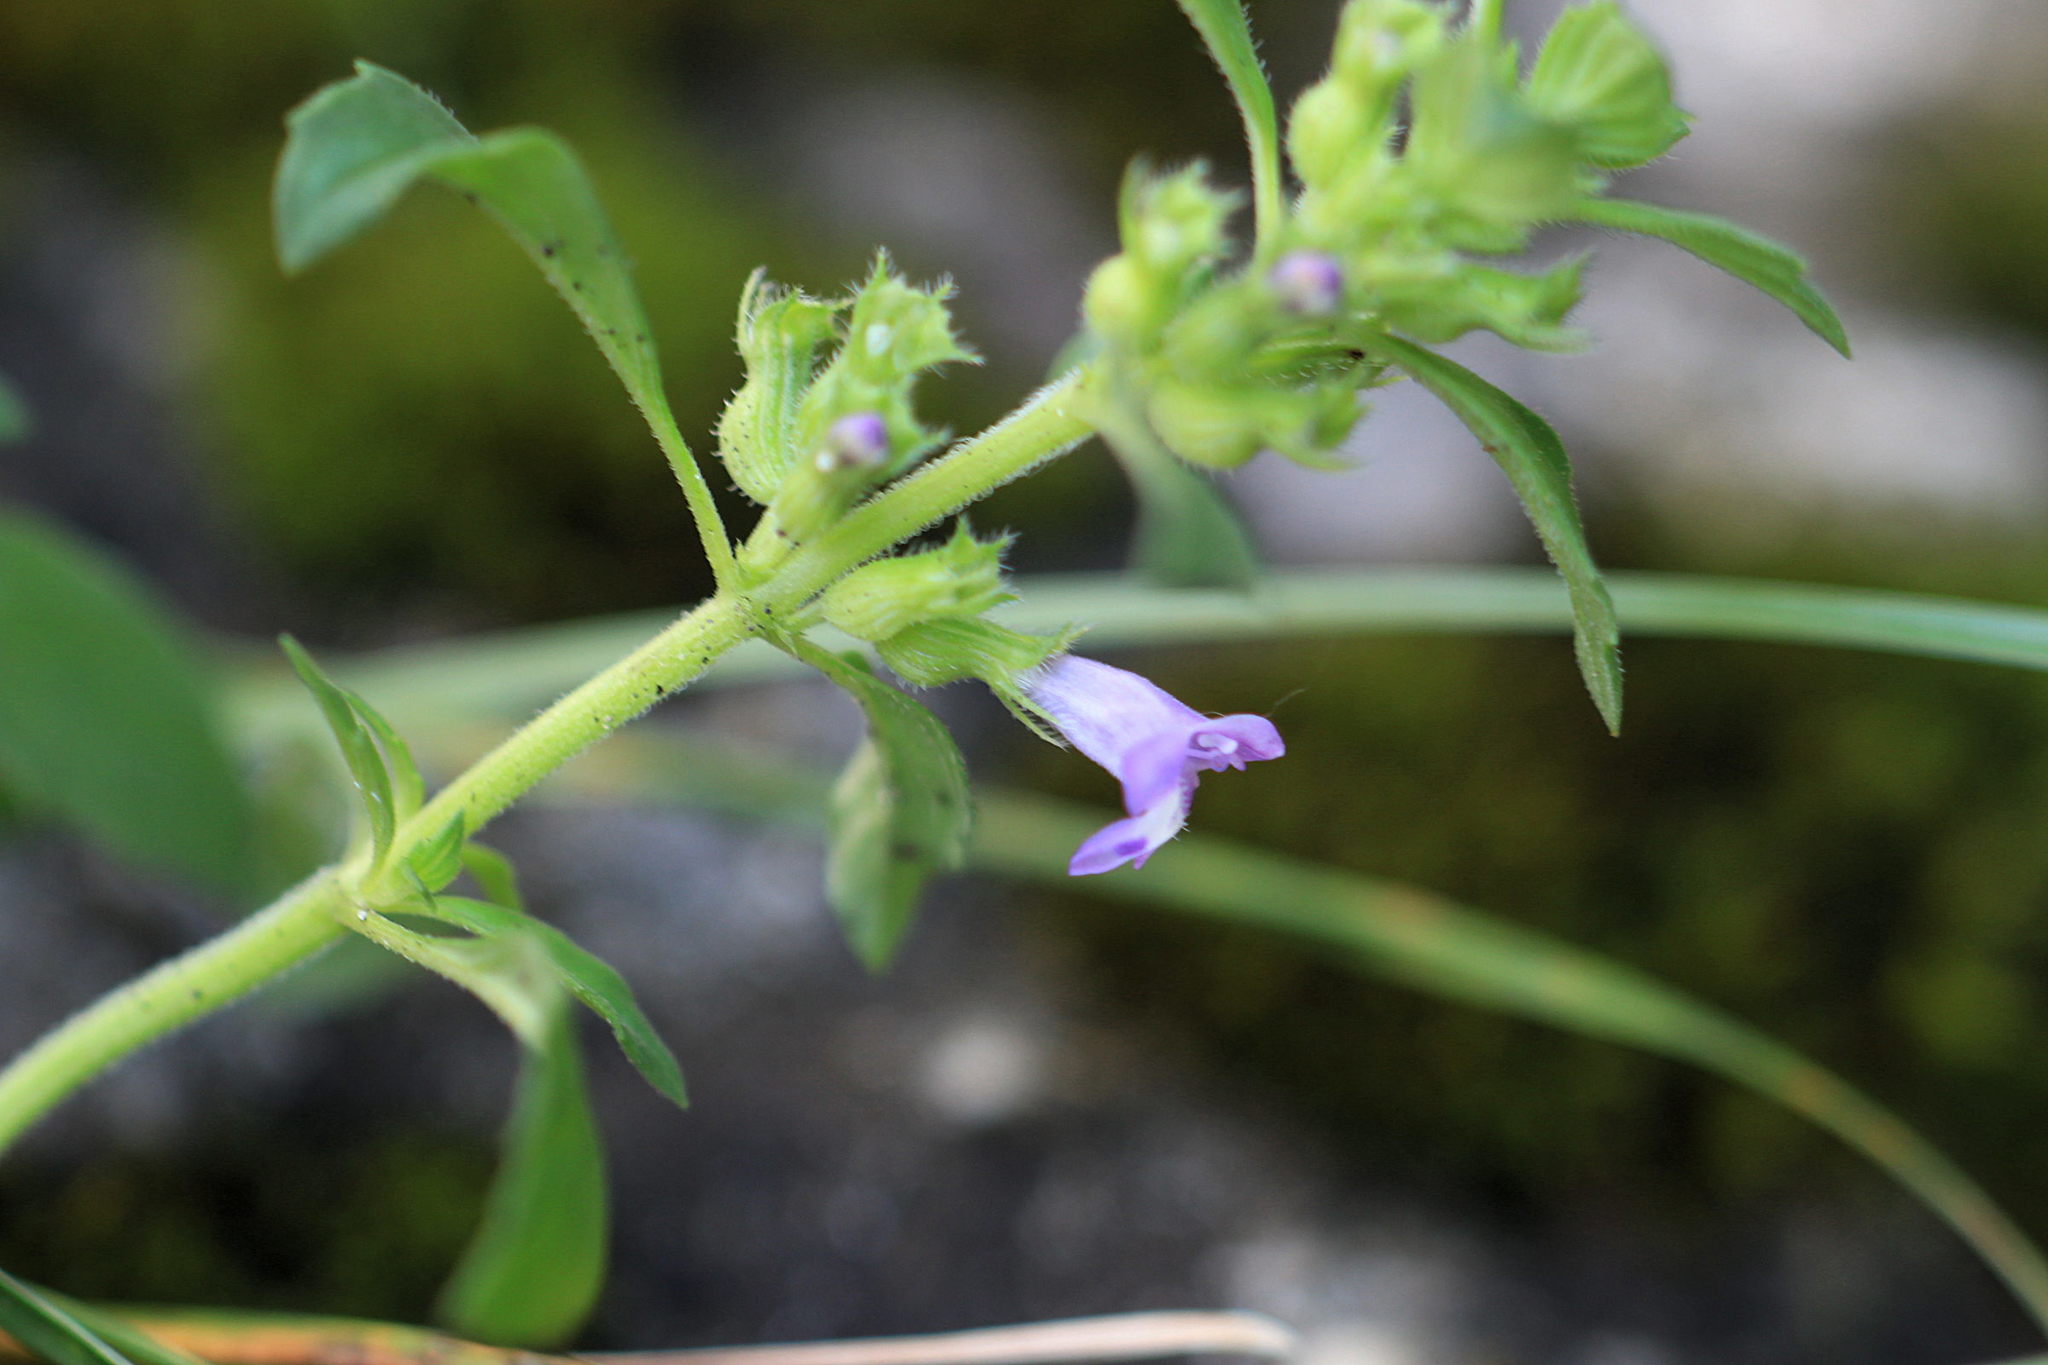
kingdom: Plantae
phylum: Tracheophyta
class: Magnoliopsida
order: Lamiales
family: Lamiaceae
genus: Clinopodium
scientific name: Clinopodium acinos
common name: Basil thyme
